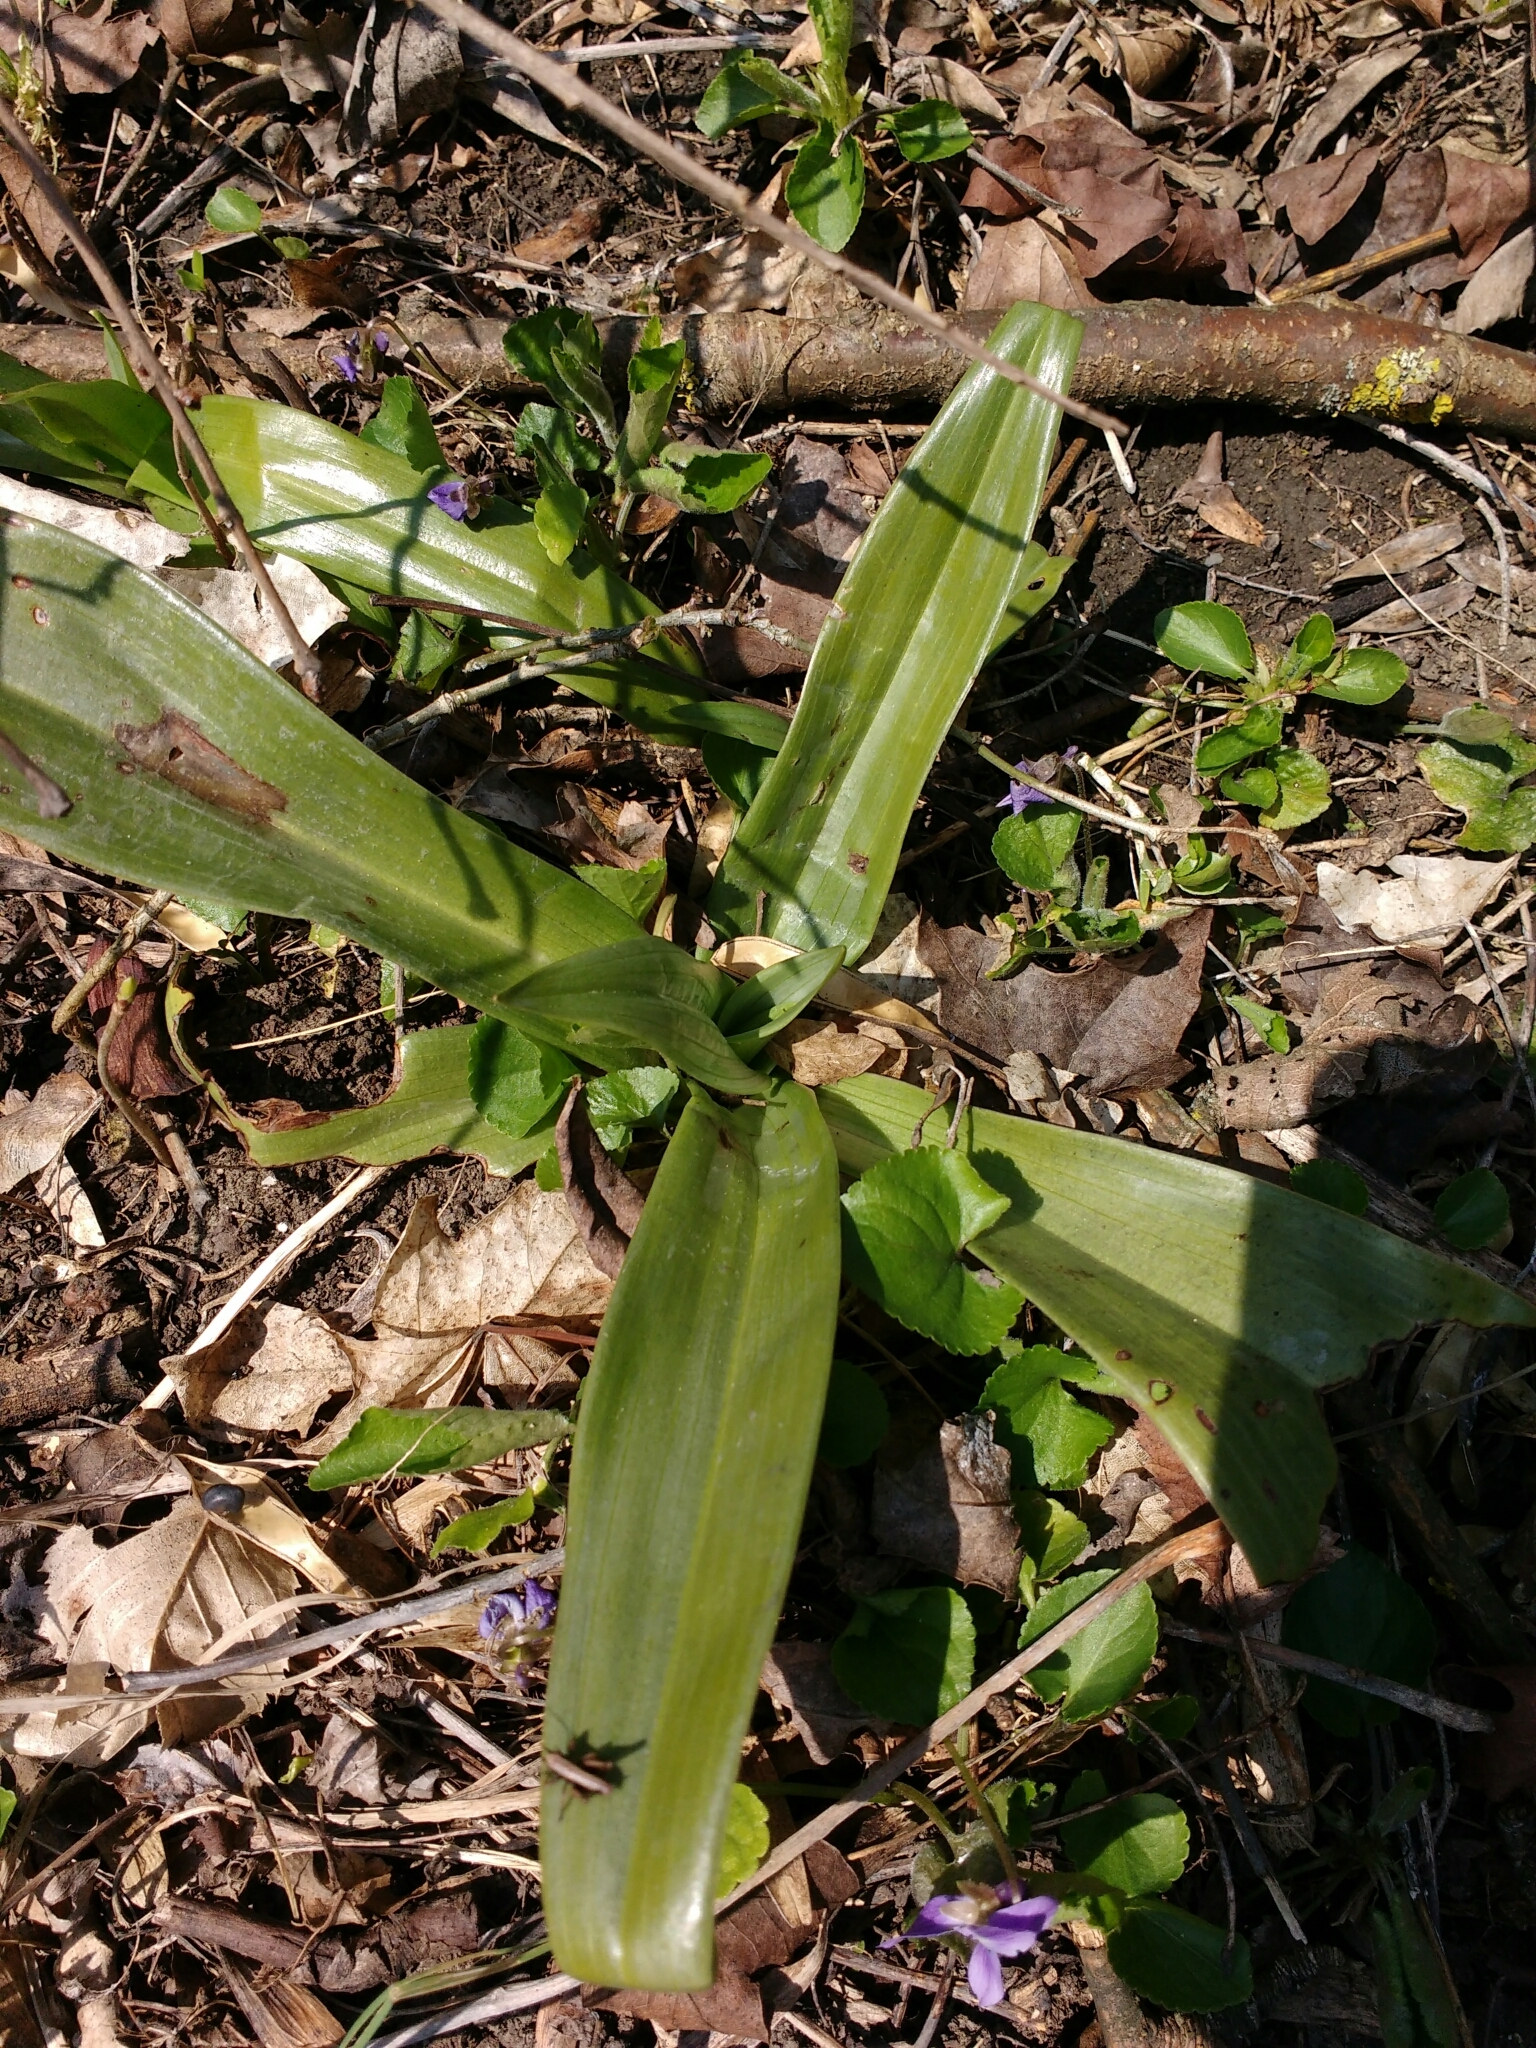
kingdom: Plantae
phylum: Tracheophyta
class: Liliopsida
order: Asparagales
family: Orchidaceae
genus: Himantoglossum
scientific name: Himantoglossum adriaticum
